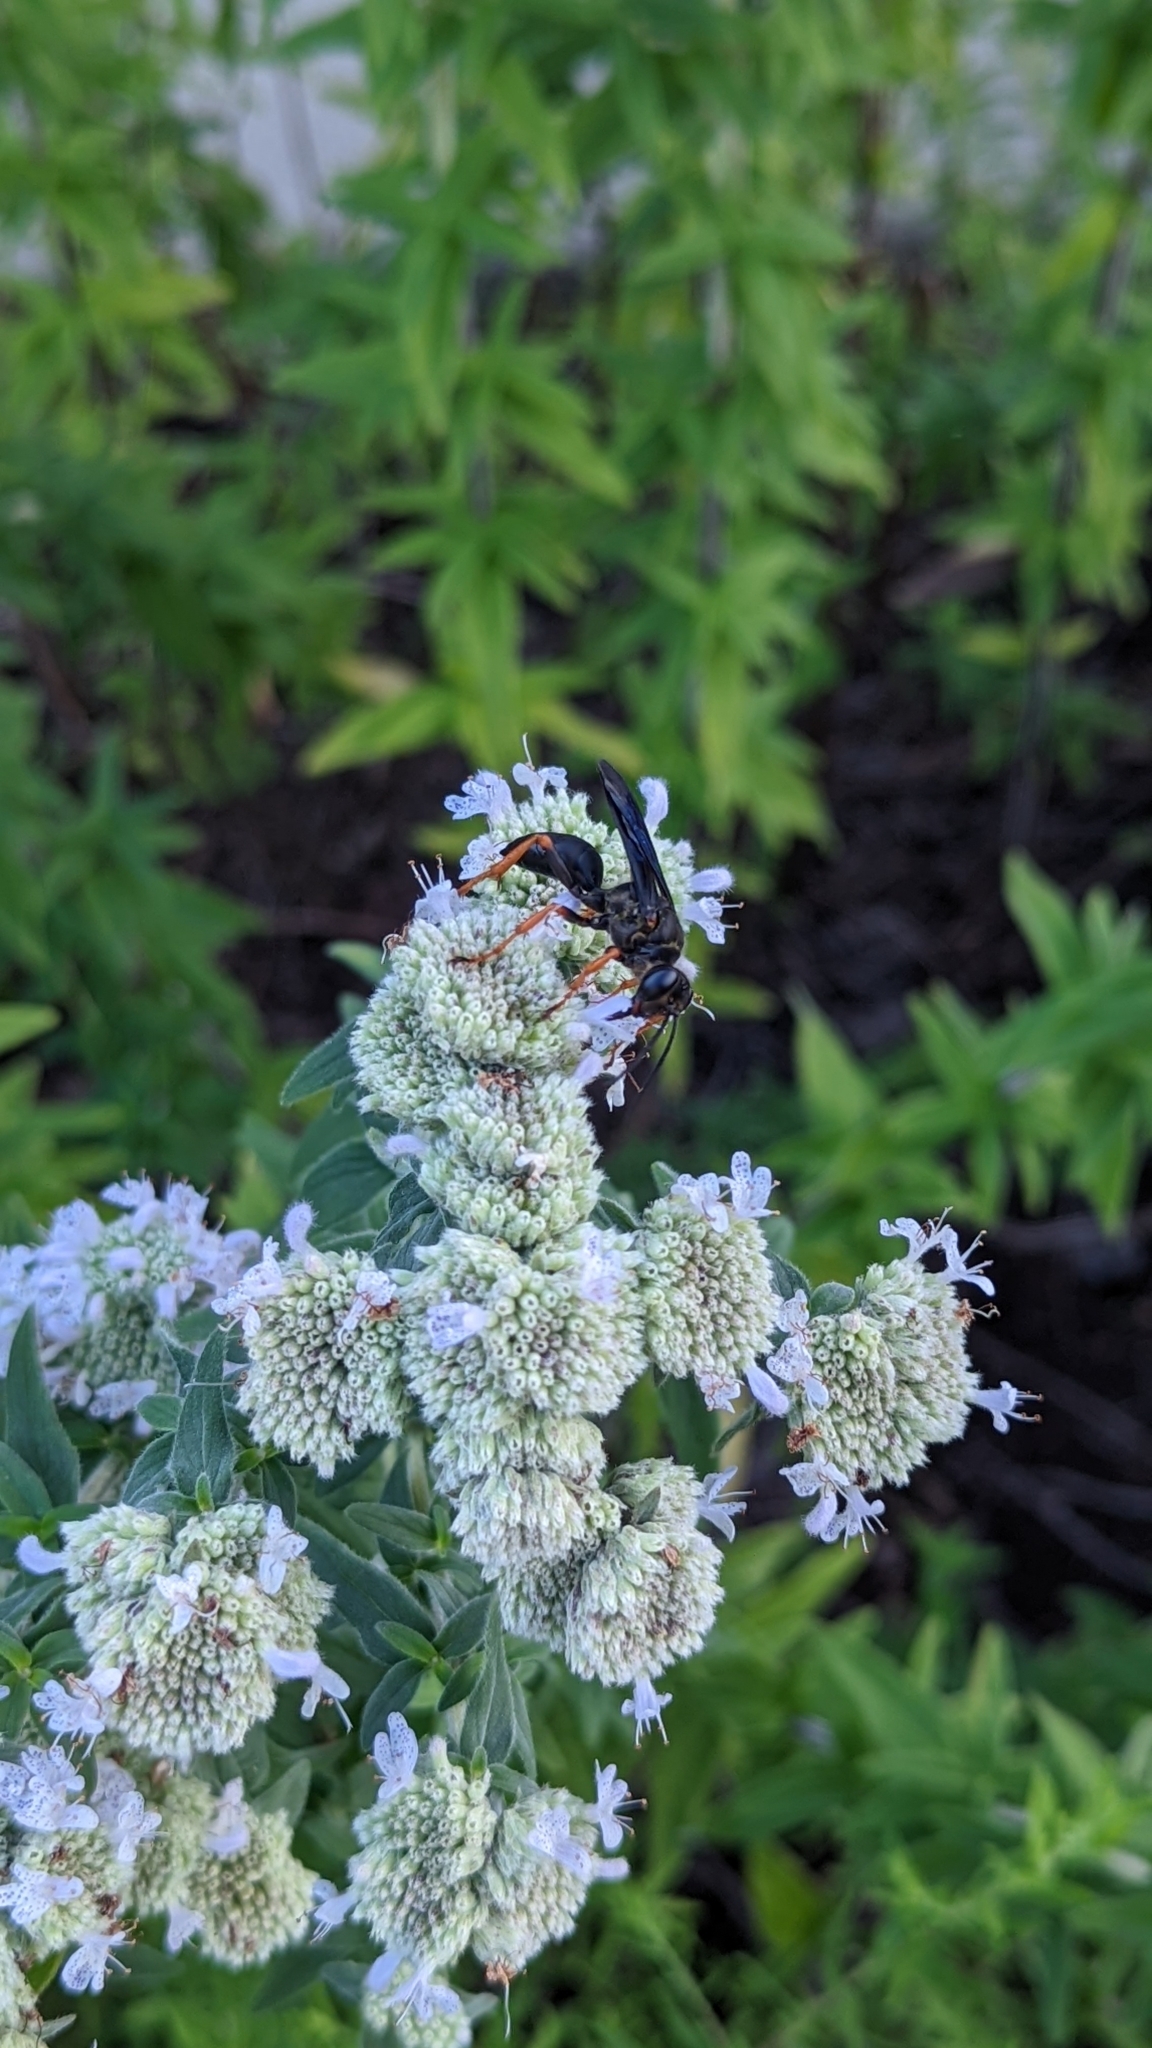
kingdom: Animalia
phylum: Arthropoda
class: Insecta
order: Hymenoptera
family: Sphecidae
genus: Sphex
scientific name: Sphex nudus
